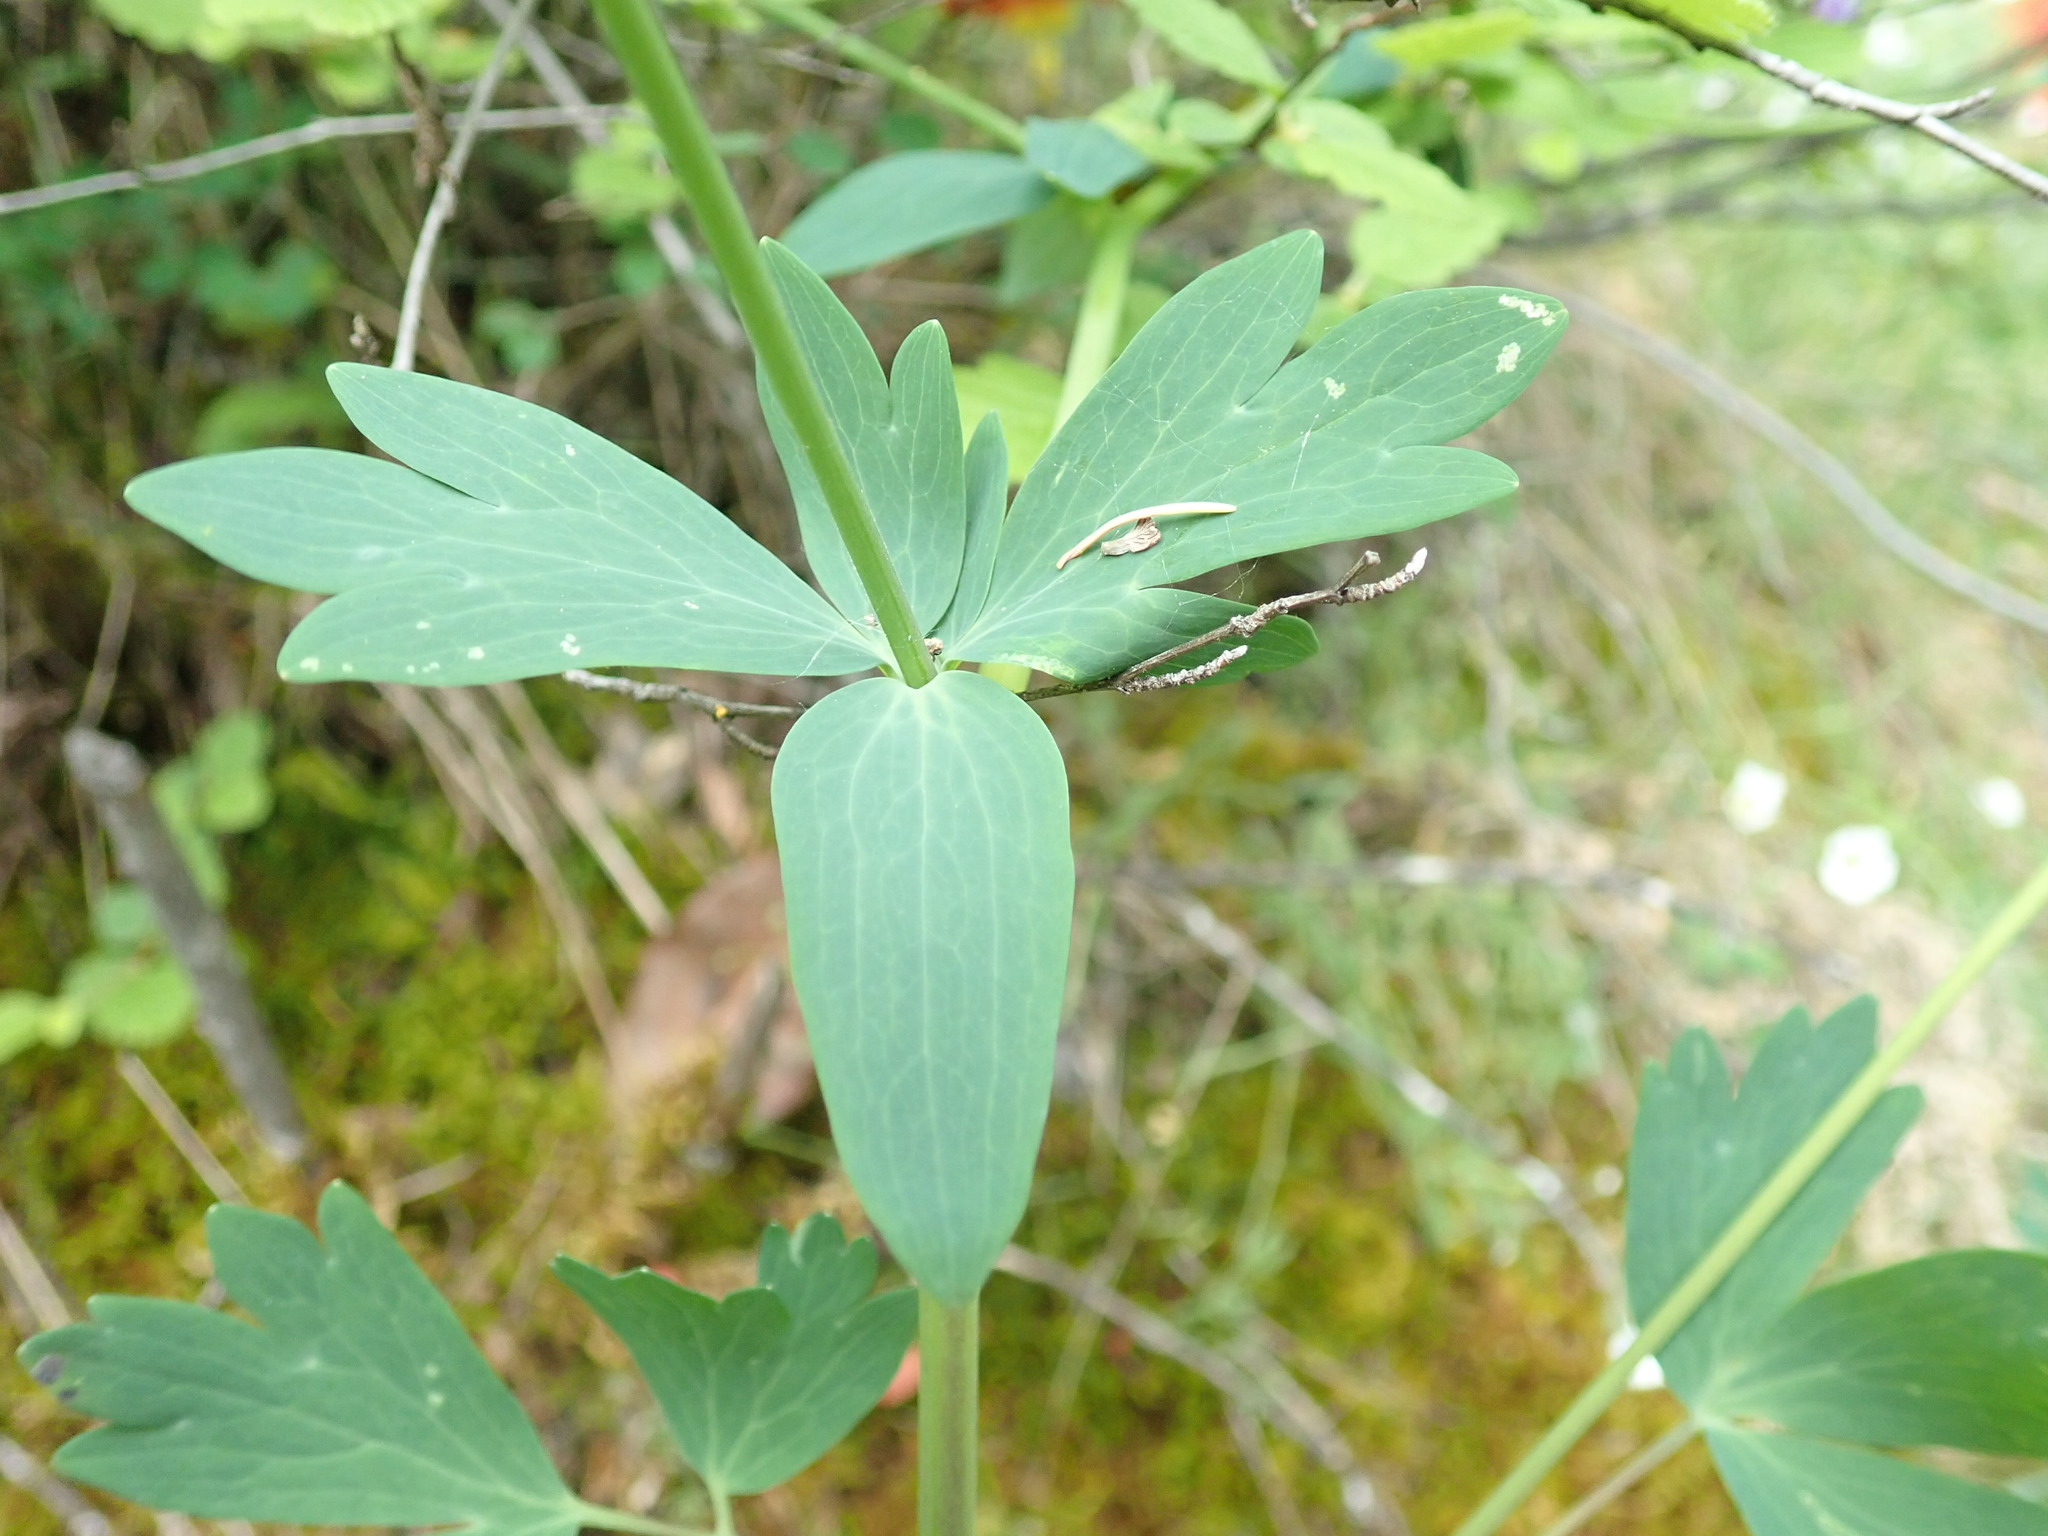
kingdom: Plantae
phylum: Tracheophyta
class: Magnoliopsida
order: Ranunculales
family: Ranunculaceae
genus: Aquilegia
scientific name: Aquilegia formosa
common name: Sitka columbine
